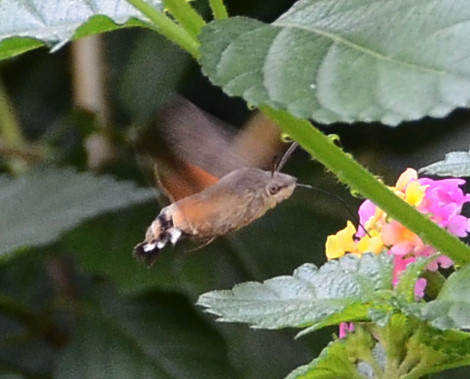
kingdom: Animalia
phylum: Arthropoda
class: Insecta
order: Lepidoptera
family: Sphingidae
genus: Macroglossum
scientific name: Macroglossum stellatarum
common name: Humming-bird hawk-moth
